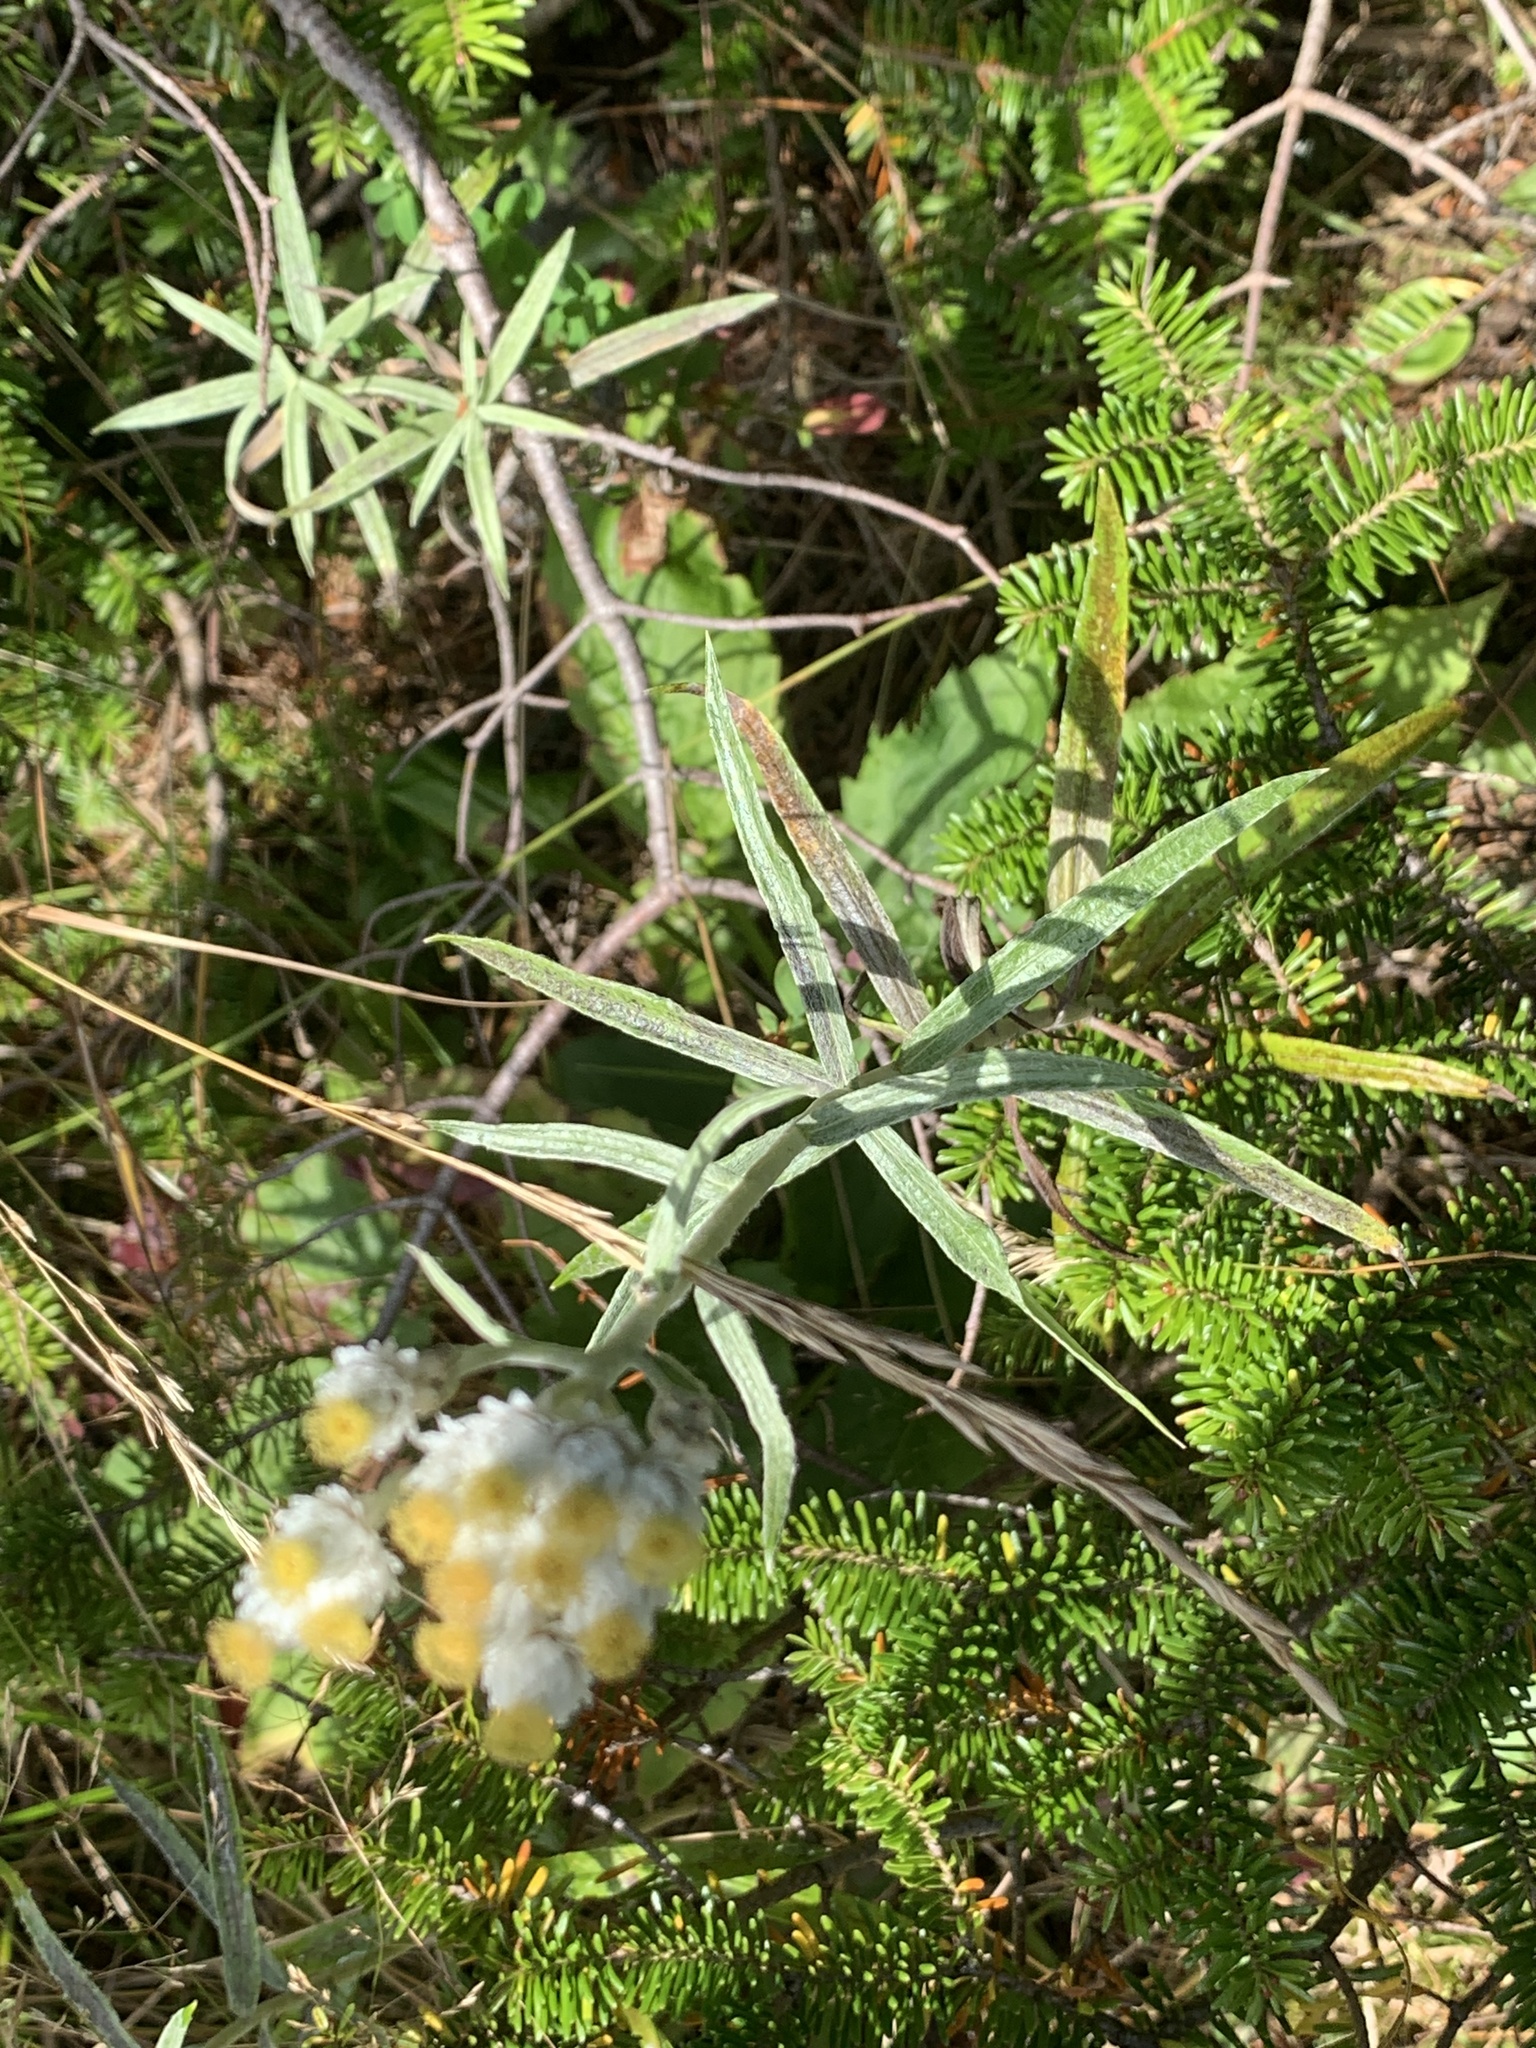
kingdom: Plantae
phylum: Tracheophyta
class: Magnoliopsida
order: Asterales
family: Asteraceae
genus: Anaphalis
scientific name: Anaphalis margaritacea
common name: Pearly everlasting
